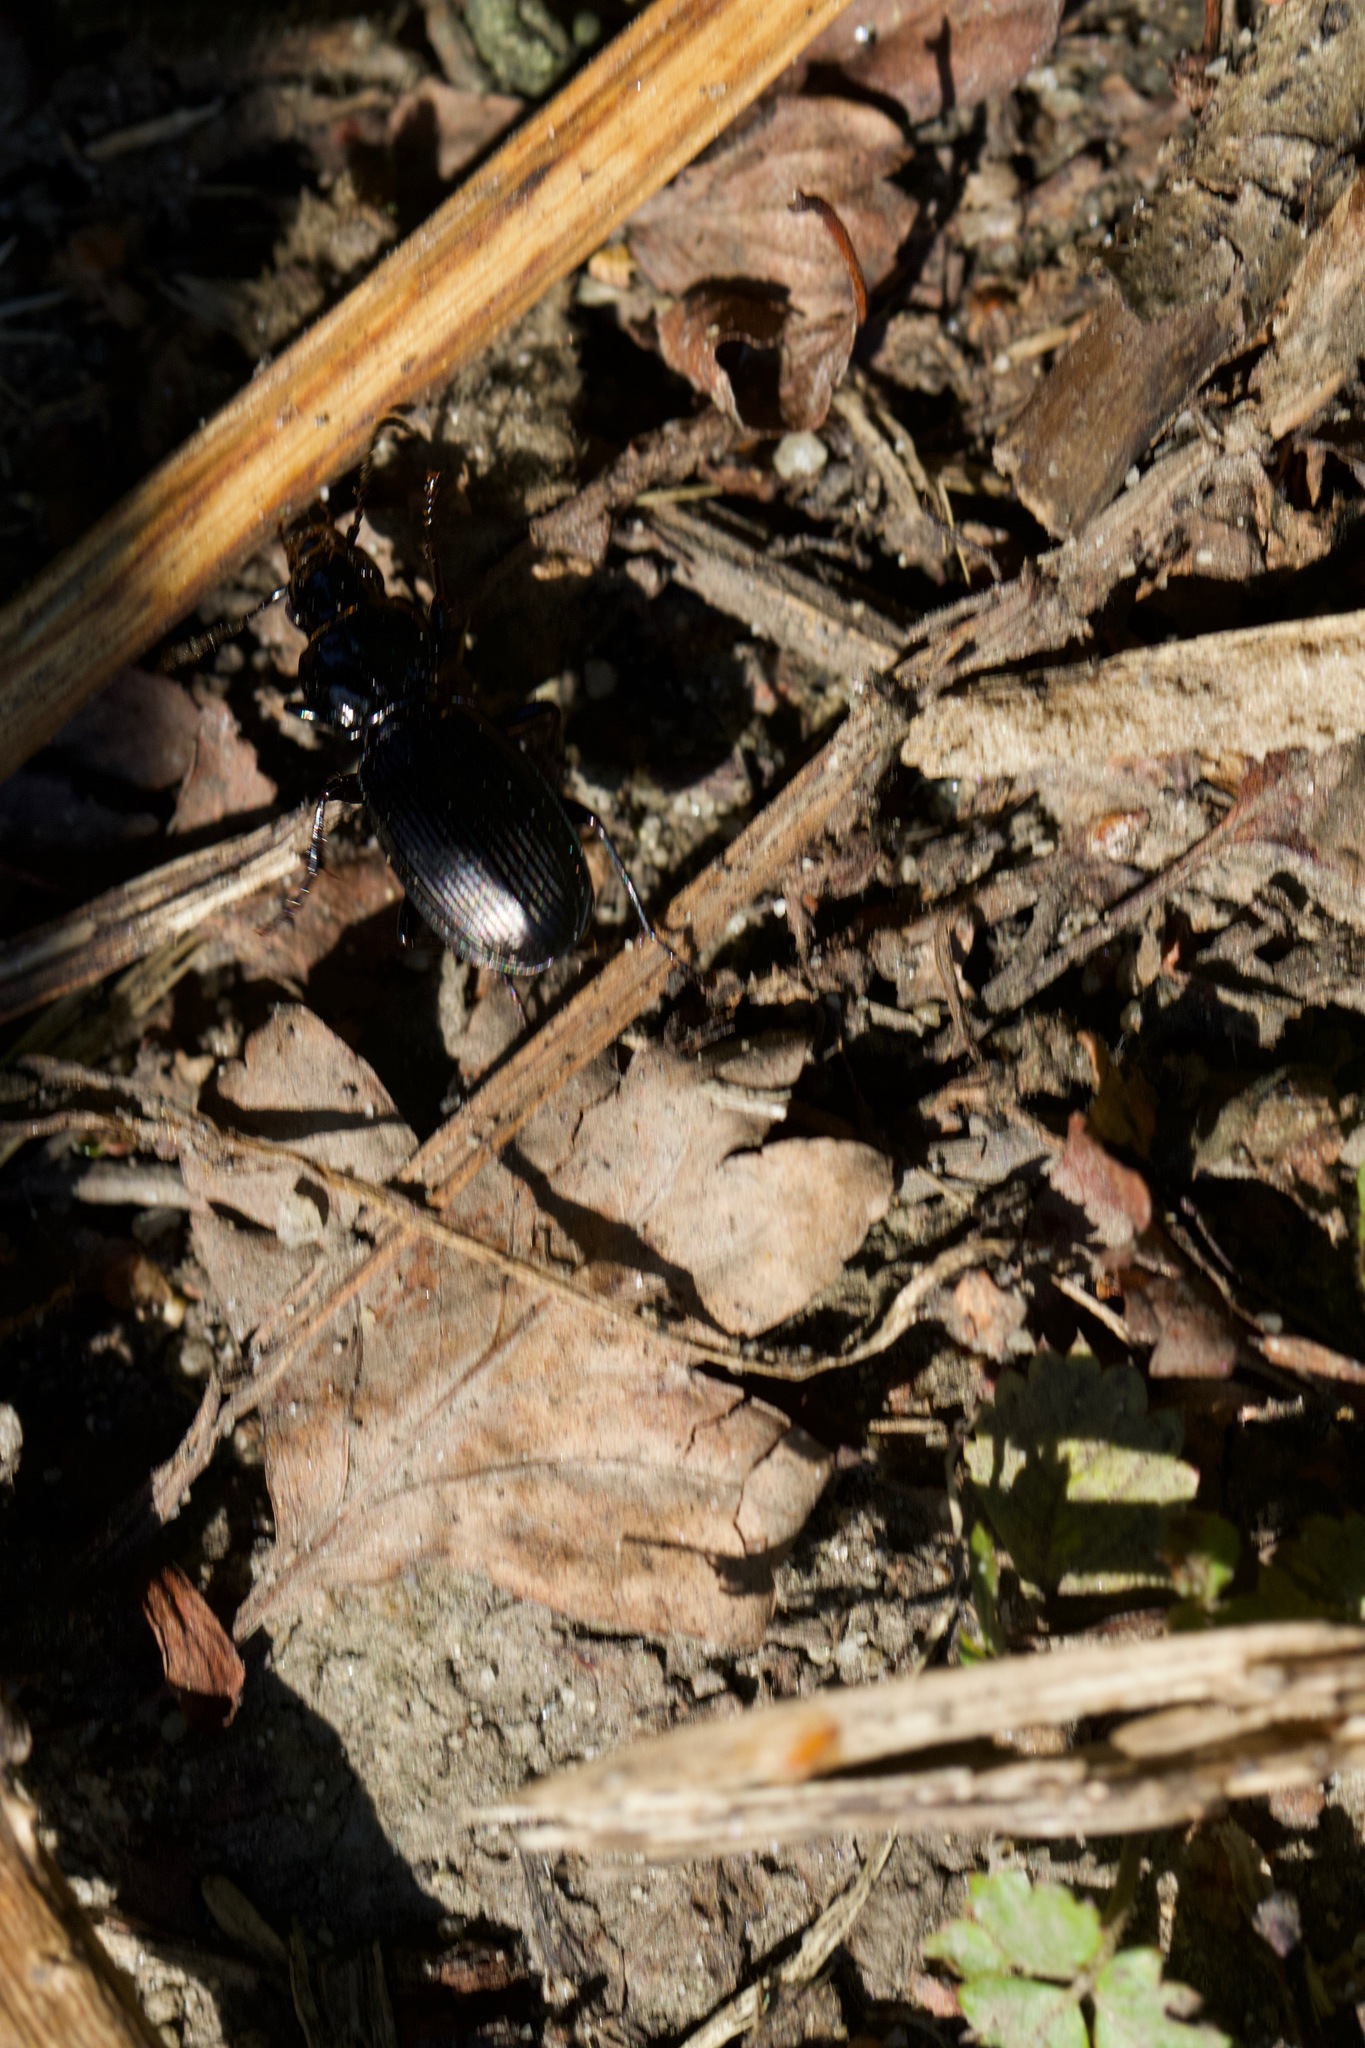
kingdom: Animalia
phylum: Arthropoda
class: Insecta
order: Coleoptera
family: Carabidae
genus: Pterostichus
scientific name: Pterostichus madidus
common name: Black clock
